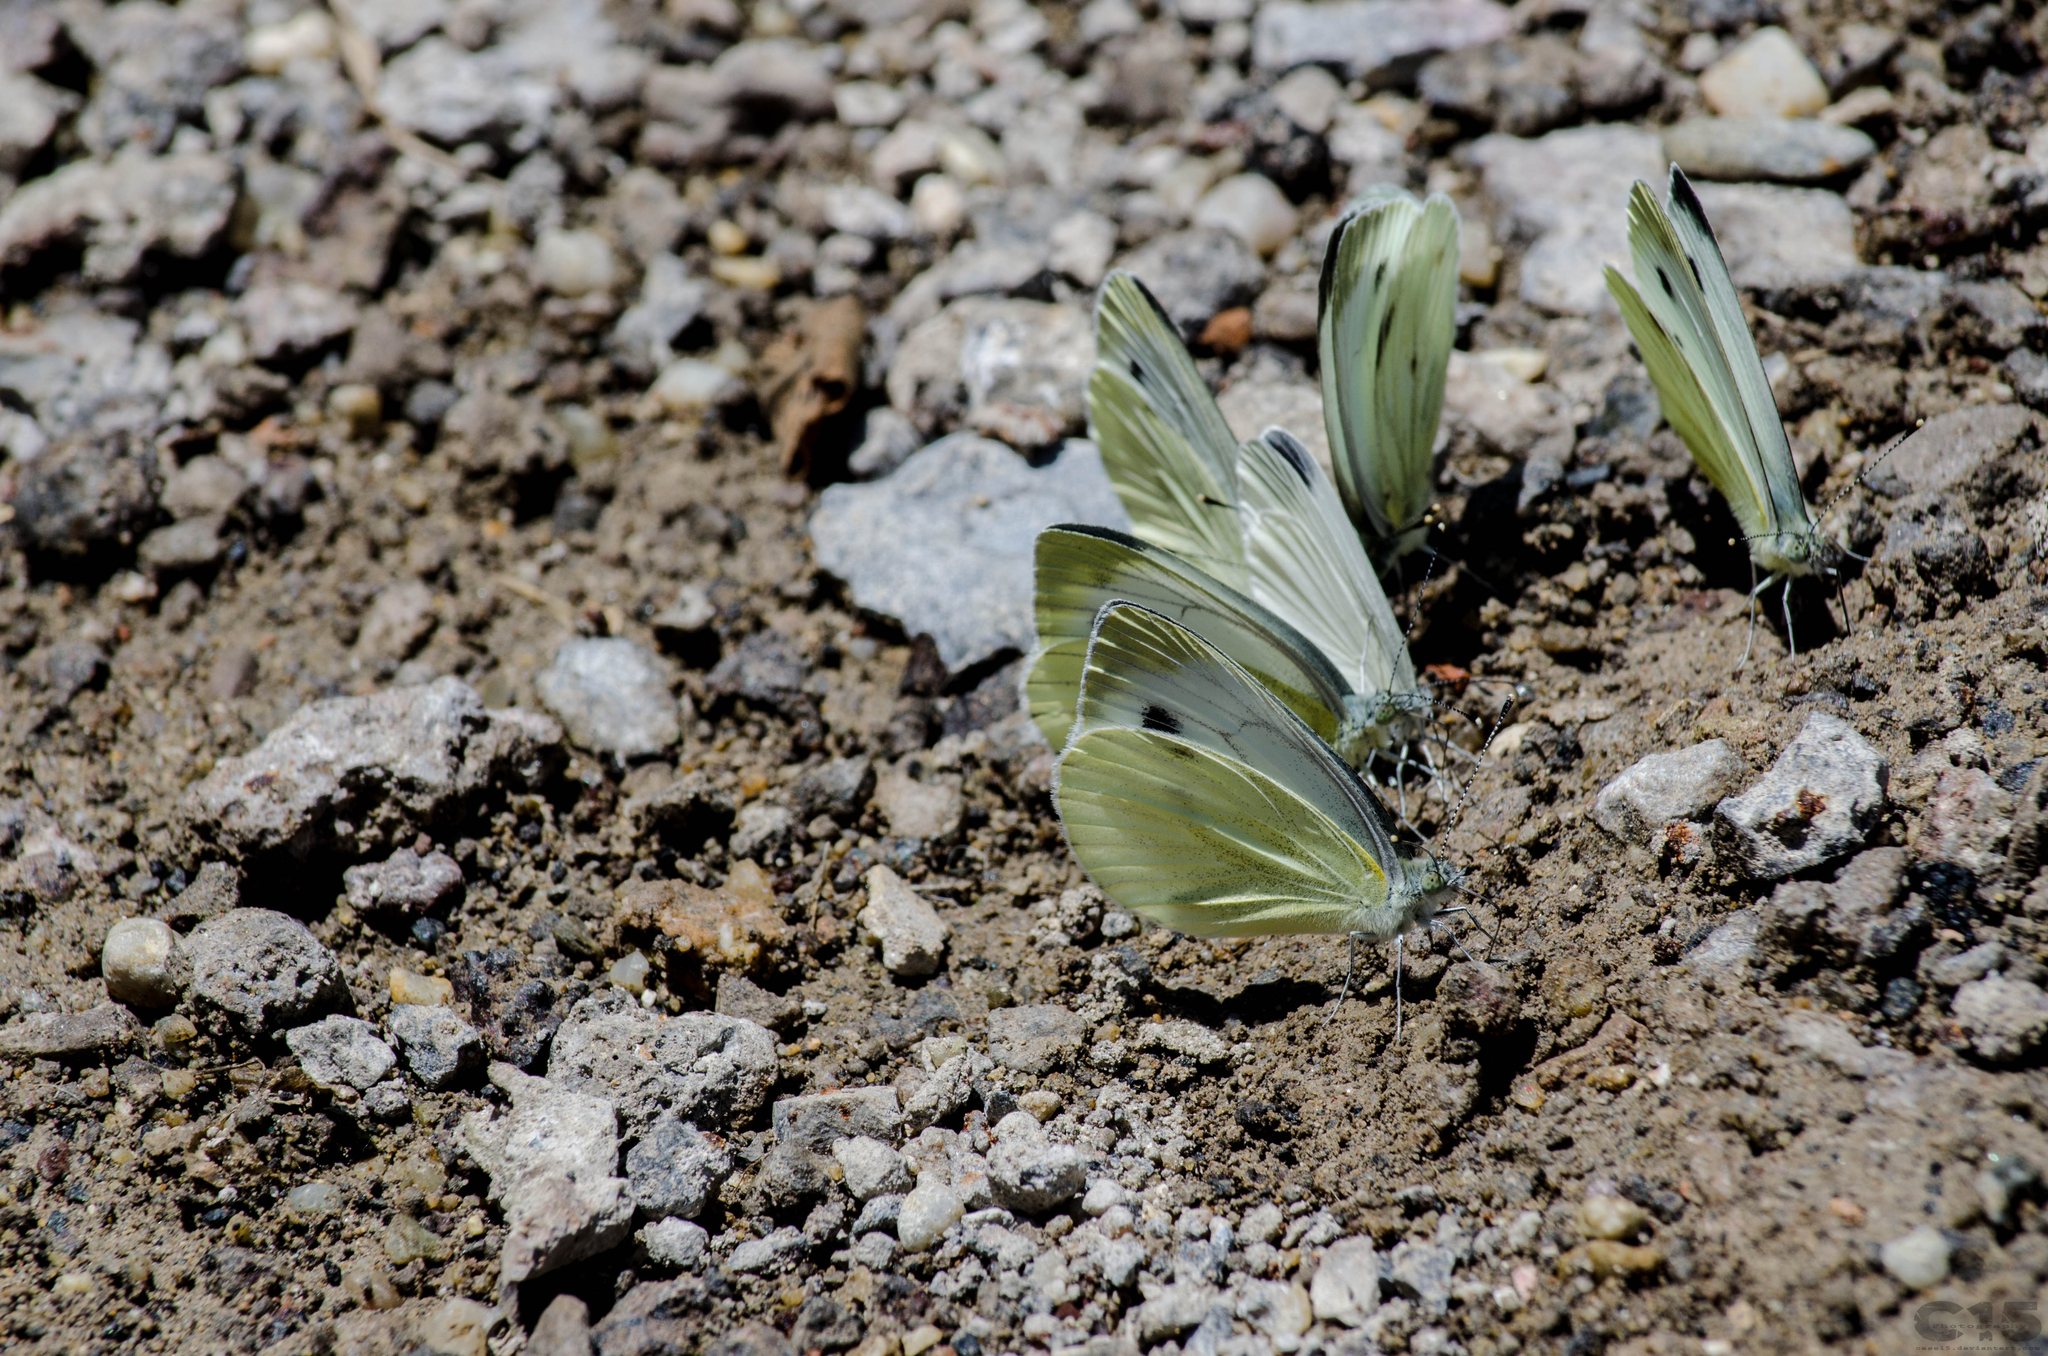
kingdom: Animalia
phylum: Arthropoda
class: Insecta
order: Lepidoptera
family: Pieridae
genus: Pieris
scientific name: Pieris napi
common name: Green-veined white
